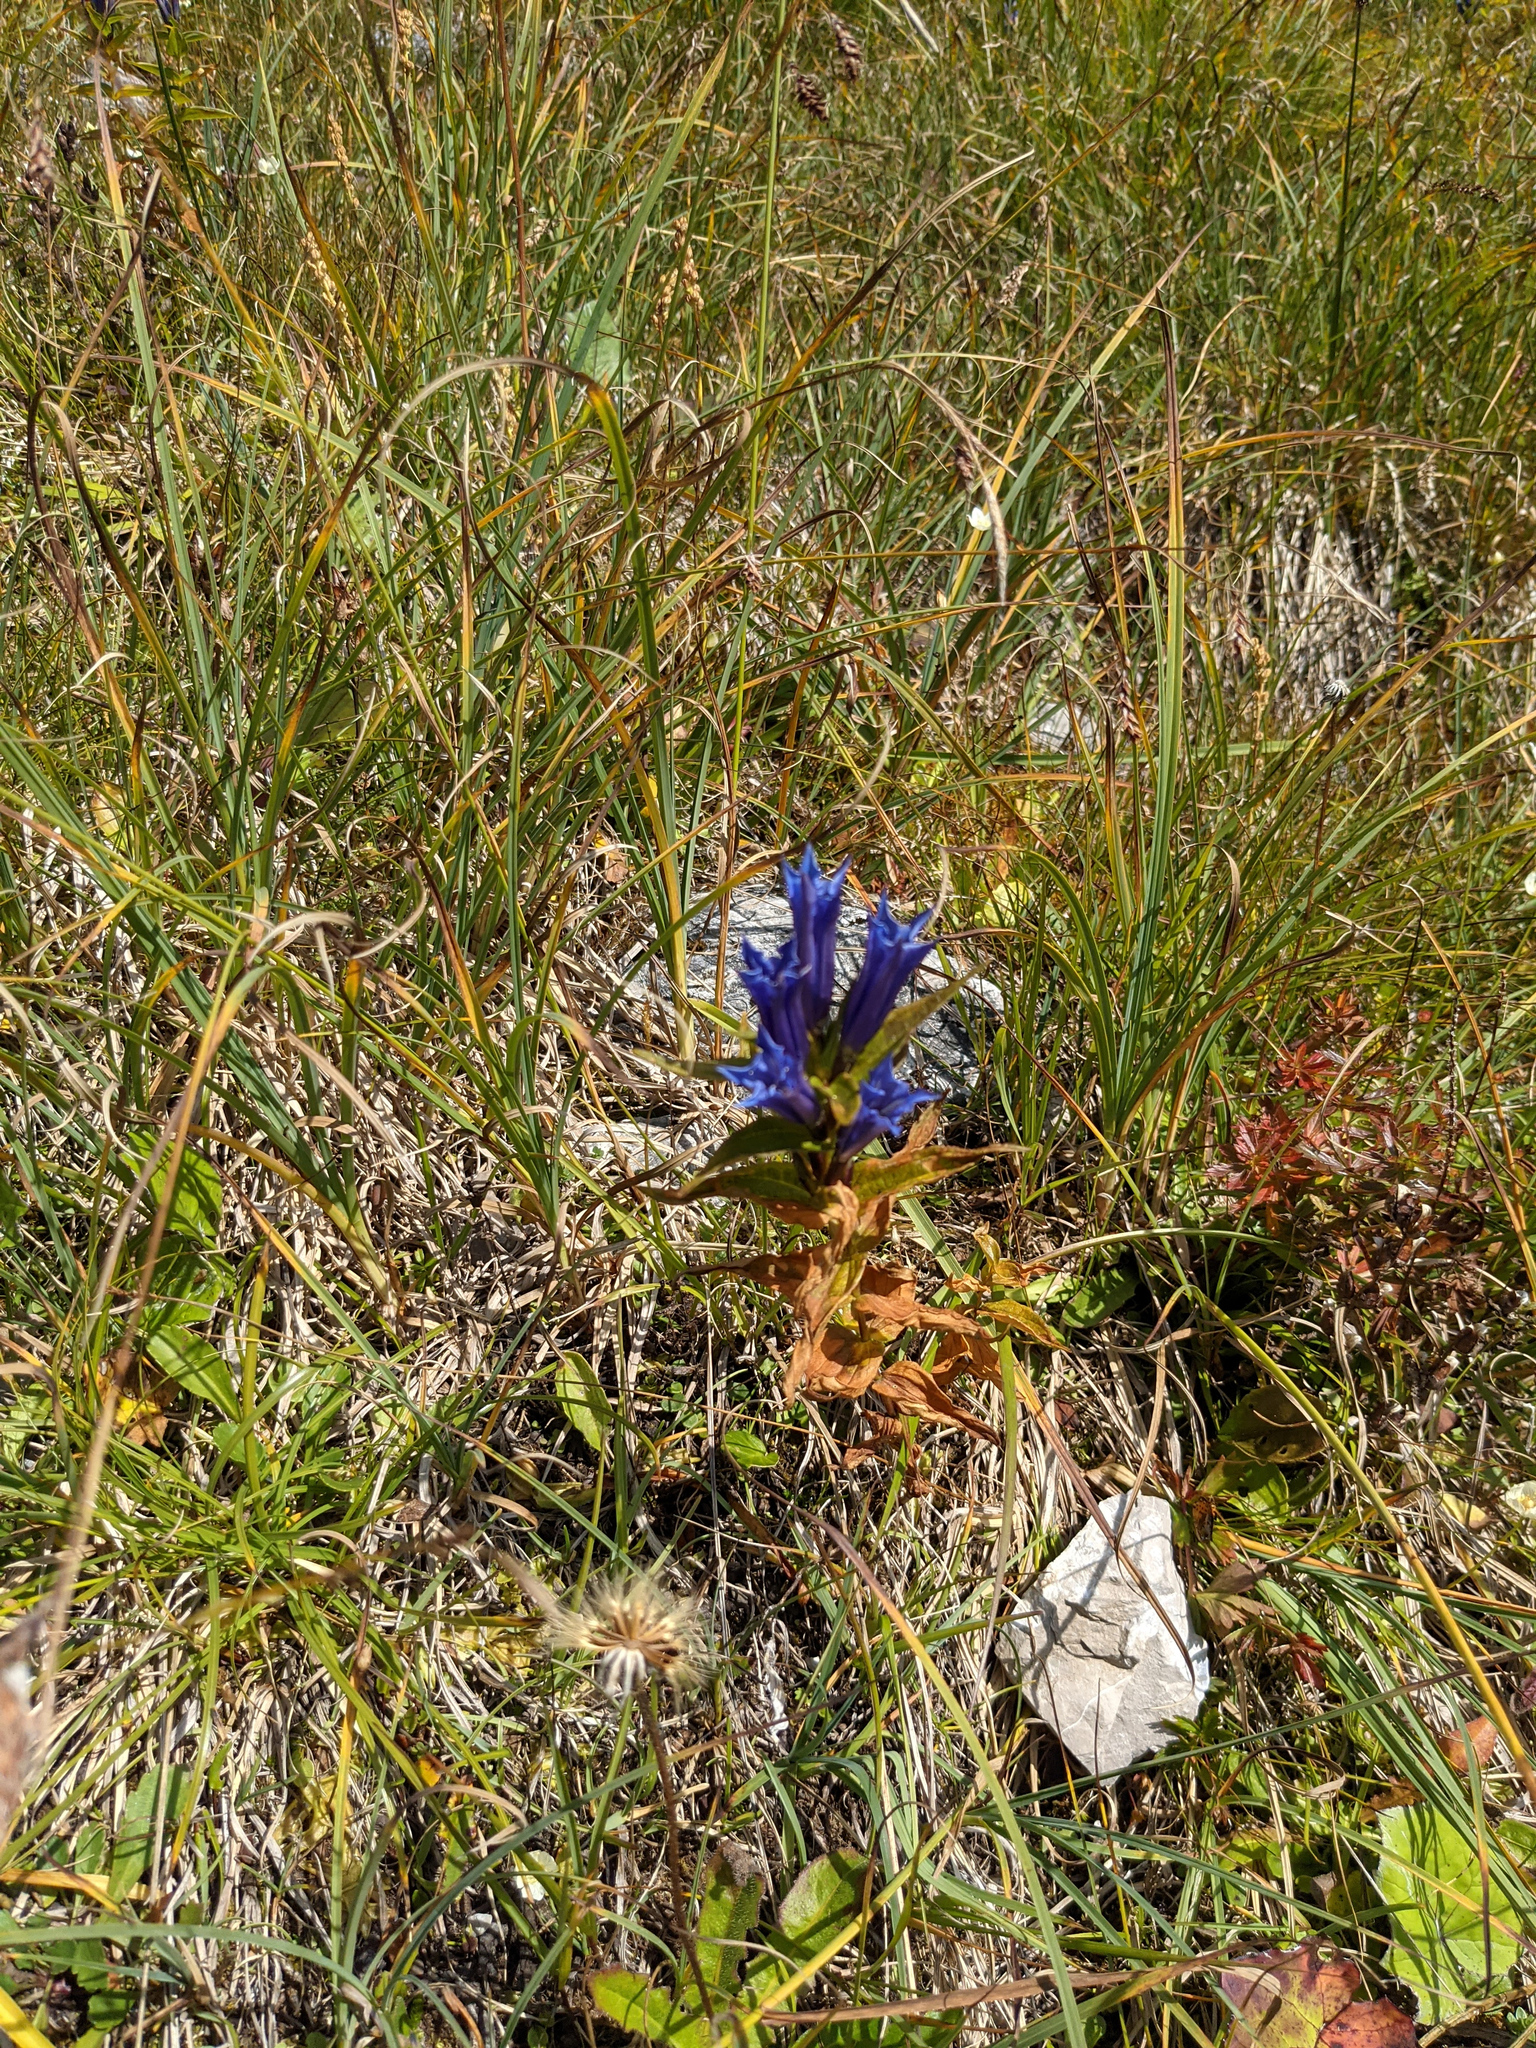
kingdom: Plantae
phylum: Tracheophyta
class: Magnoliopsida
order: Gentianales
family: Gentianaceae
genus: Gentiana
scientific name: Gentiana asclepiadea
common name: Willow gentian
